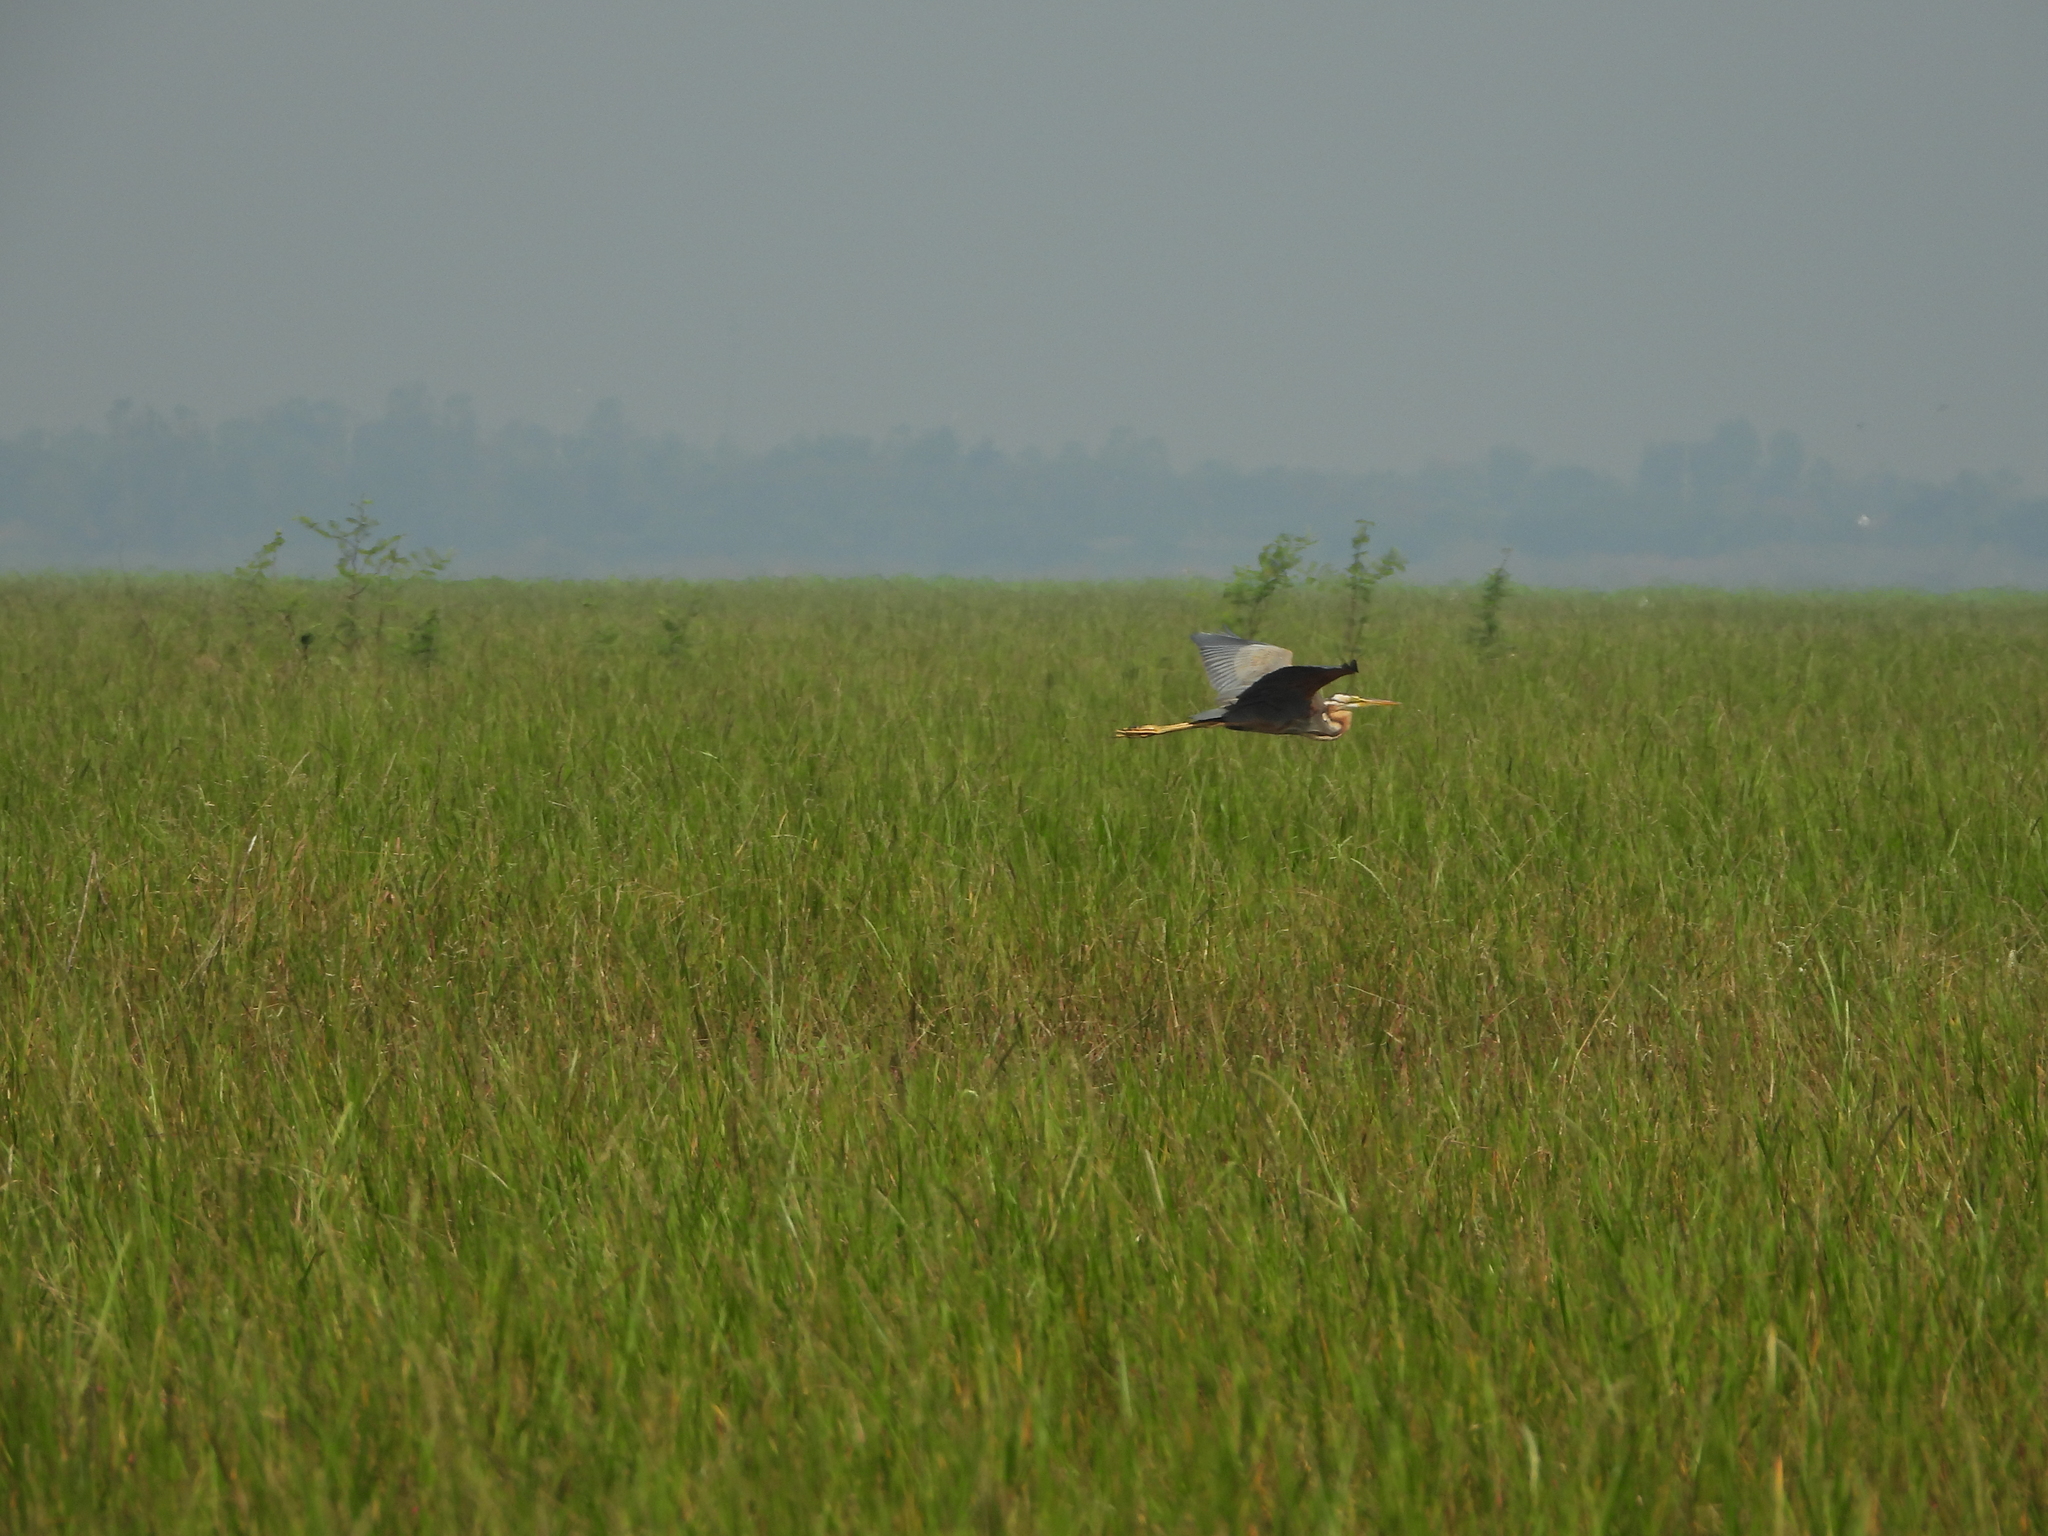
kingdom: Animalia
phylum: Chordata
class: Aves
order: Pelecaniformes
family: Ardeidae
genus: Ardea
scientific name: Ardea purpurea
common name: Purple heron
